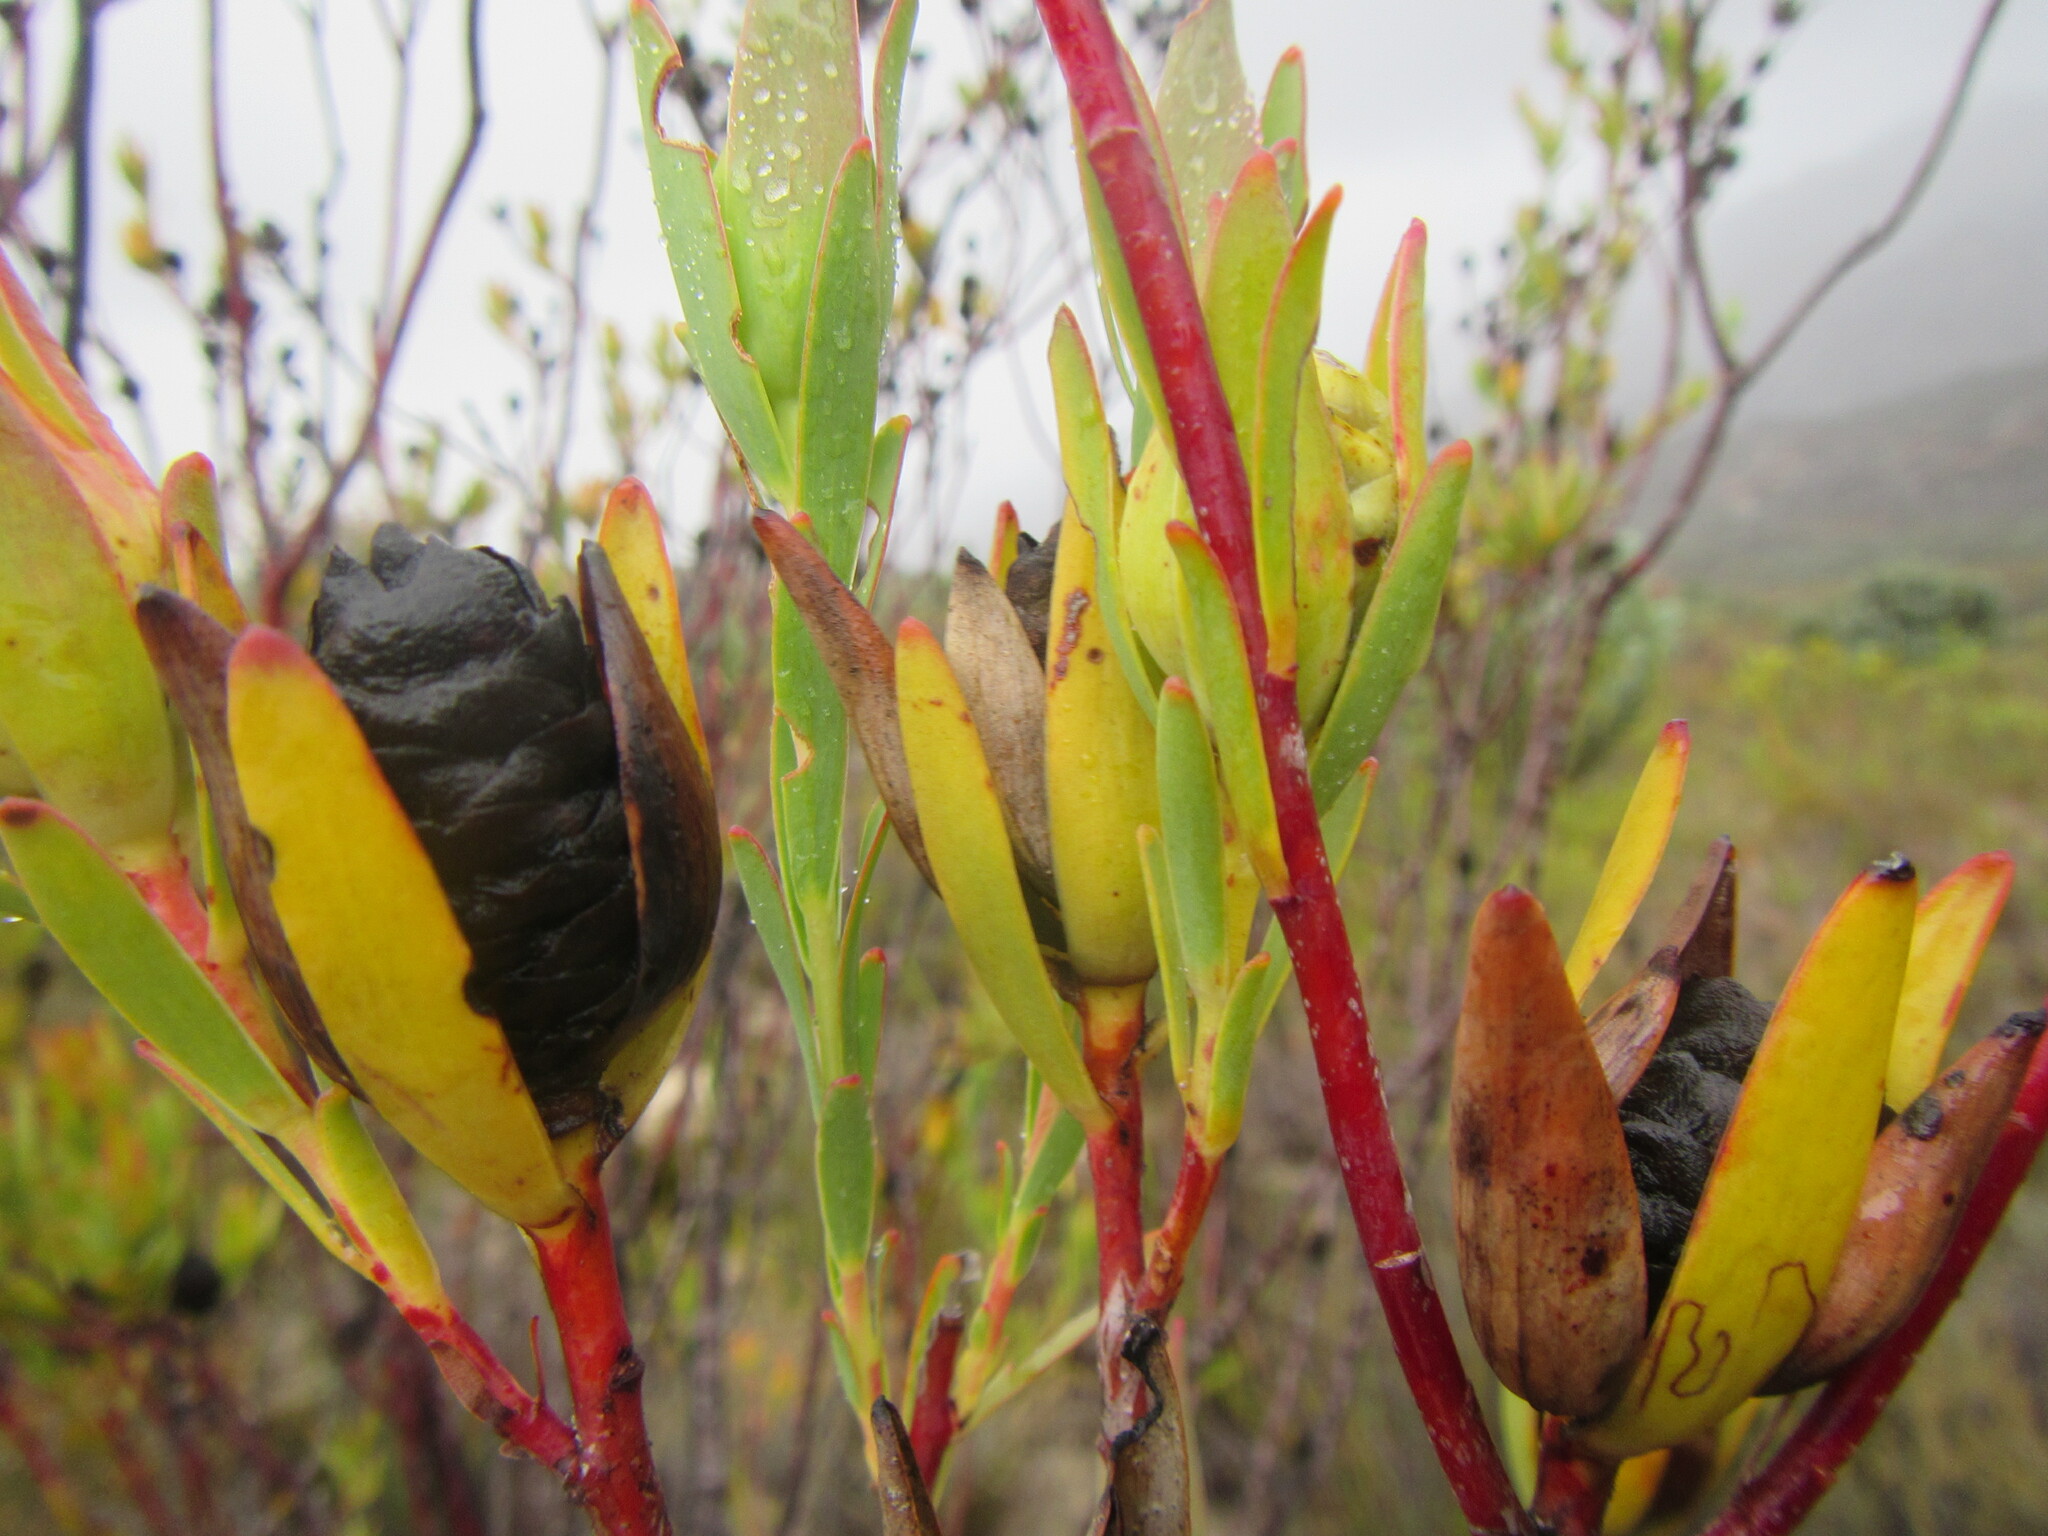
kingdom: Plantae
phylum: Tracheophyta
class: Magnoliopsida
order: Proteales
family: Proteaceae
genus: Leucadendron
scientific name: Leucadendron diemontianum
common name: Visgat conebush
